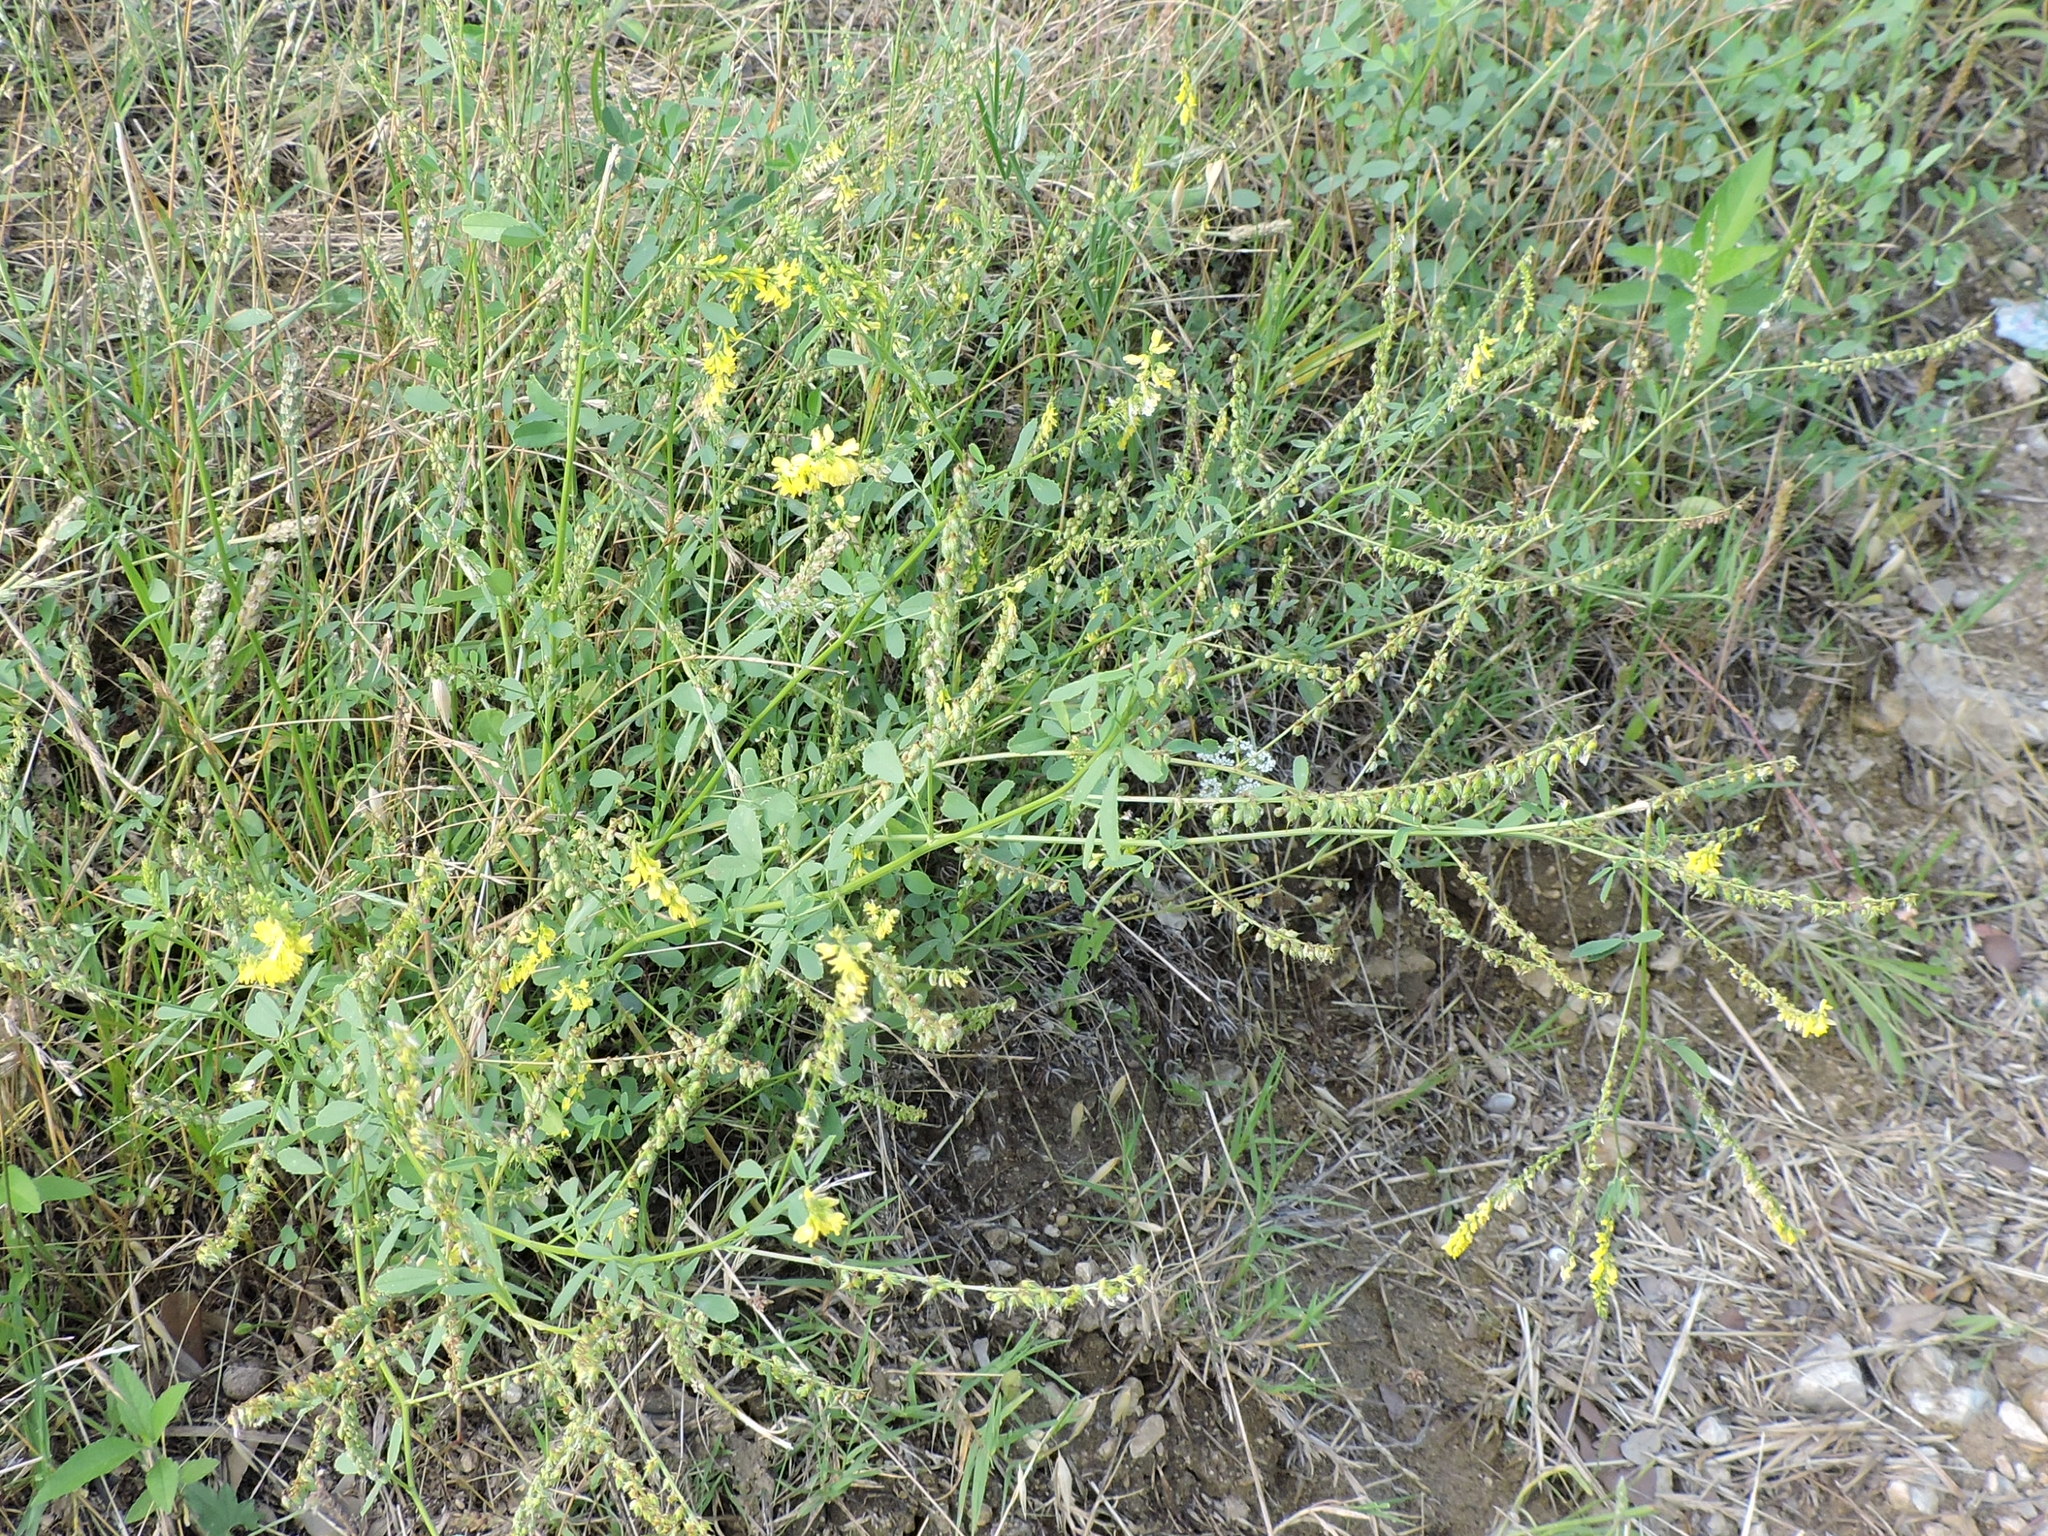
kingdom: Plantae
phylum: Tracheophyta
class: Magnoliopsida
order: Fabales
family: Fabaceae
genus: Melilotus
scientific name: Melilotus officinalis
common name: Sweetclover
